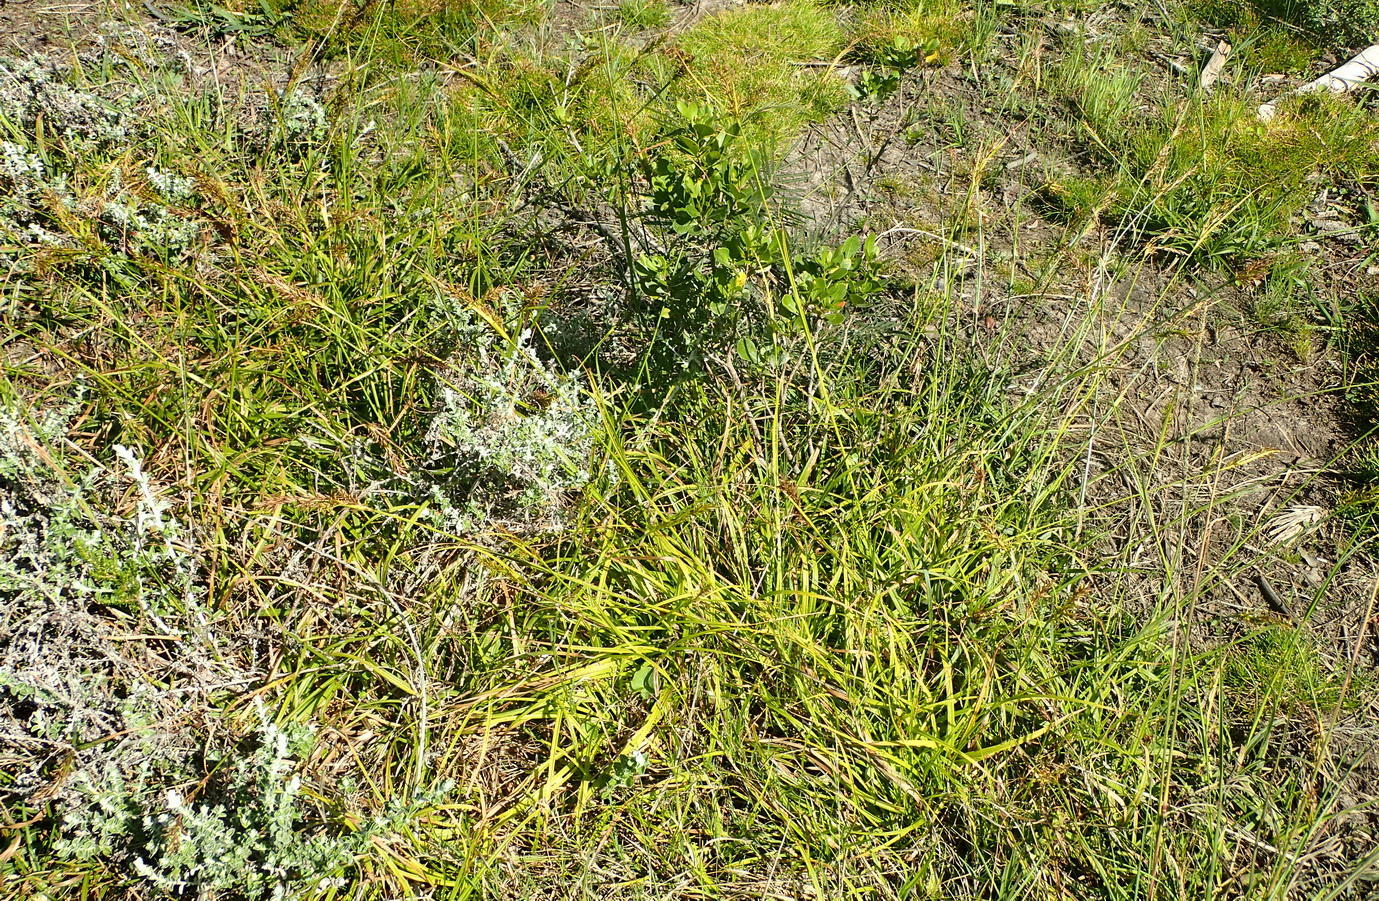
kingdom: Plantae
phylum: Tracheophyta
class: Liliopsida
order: Poales
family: Cyperaceae
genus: Carex
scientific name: Carex capensis
